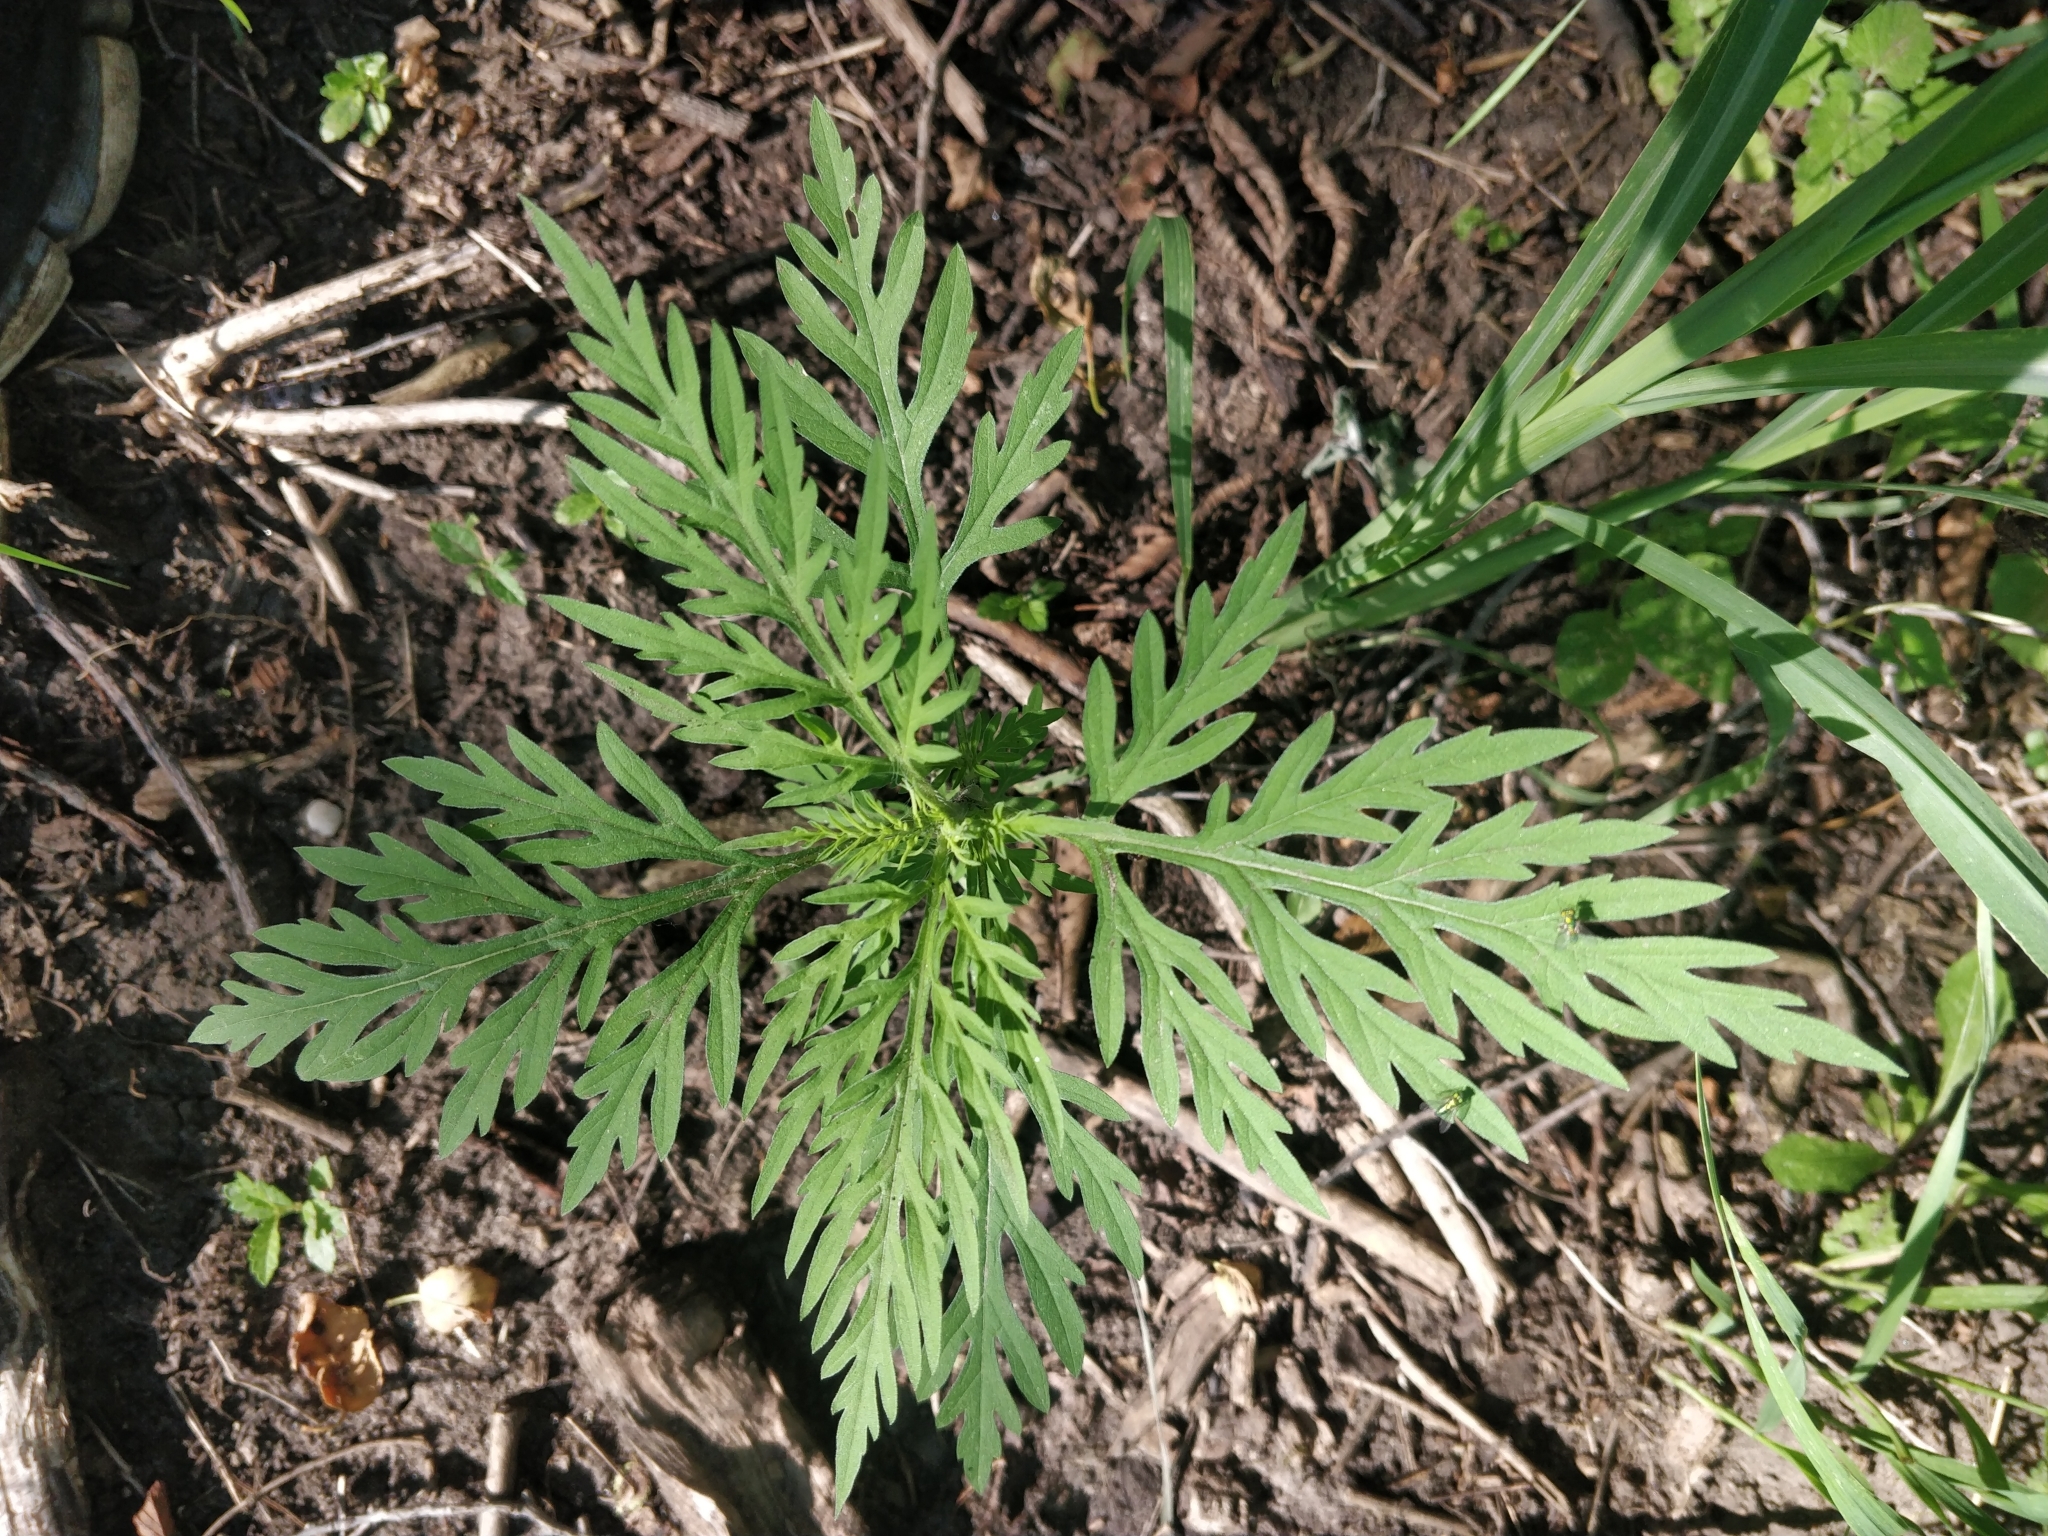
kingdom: Plantae
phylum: Tracheophyta
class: Magnoliopsida
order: Asterales
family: Asteraceae
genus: Ambrosia
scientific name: Ambrosia artemisiifolia
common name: Annual ragweed
